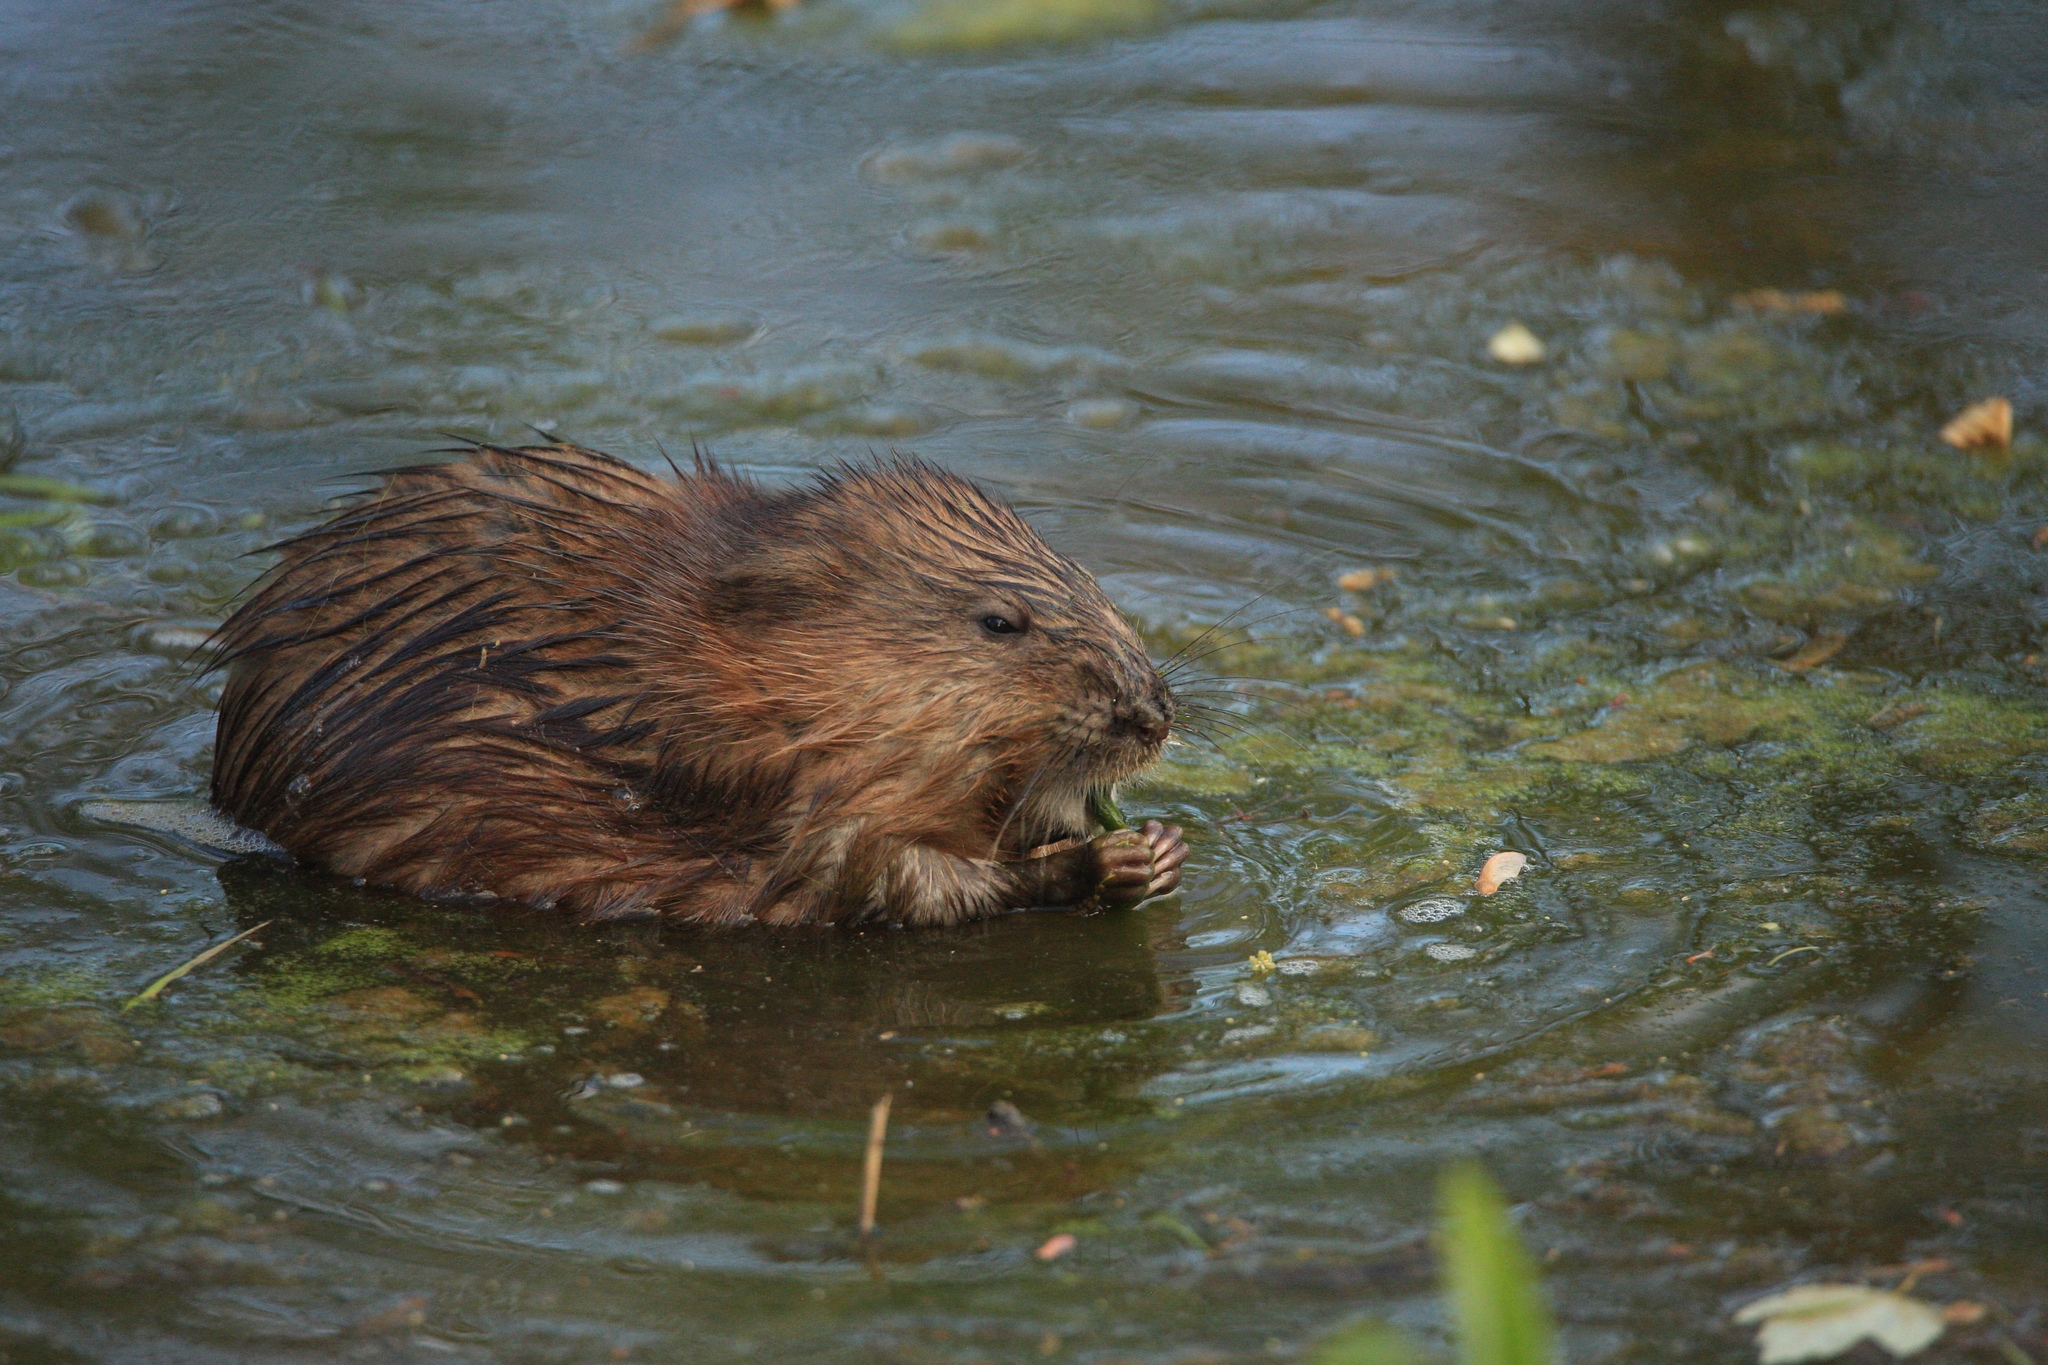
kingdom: Animalia
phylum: Chordata
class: Mammalia
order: Rodentia
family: Cricetidae
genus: Ondatra
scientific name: Ondatra zibethicus
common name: Muskrat
